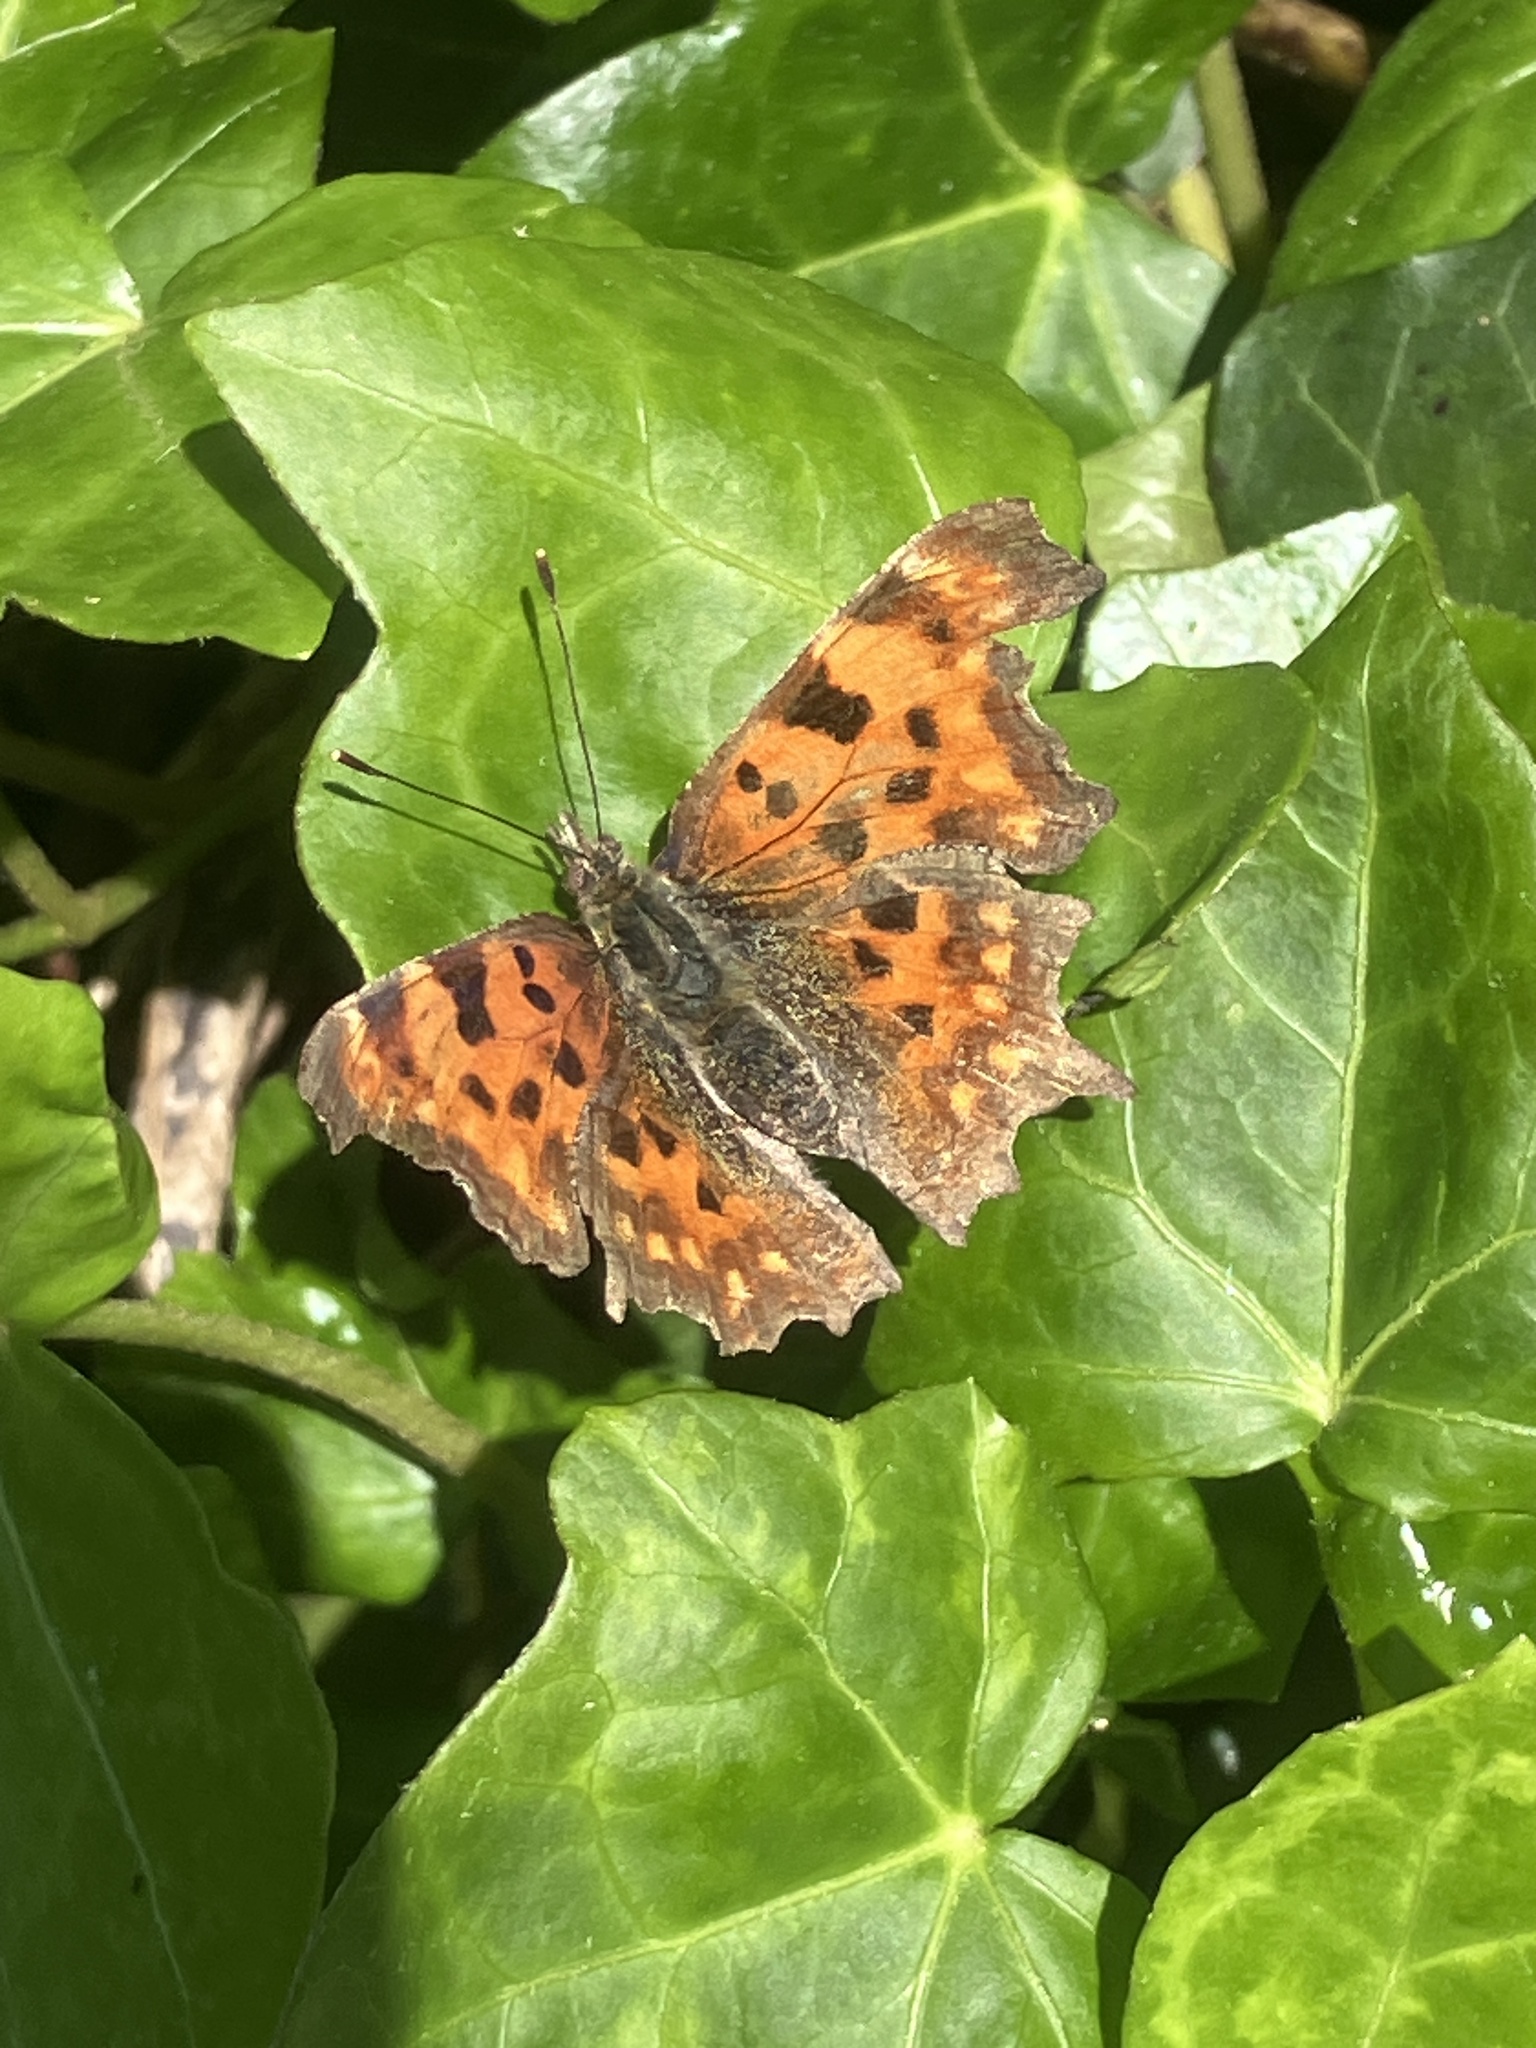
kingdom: Animalia
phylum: Arthropoda
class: Insecta
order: Lepidoptera
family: Nymphalidae
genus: Polygonia
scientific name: Polygonia c-album
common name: Comma
